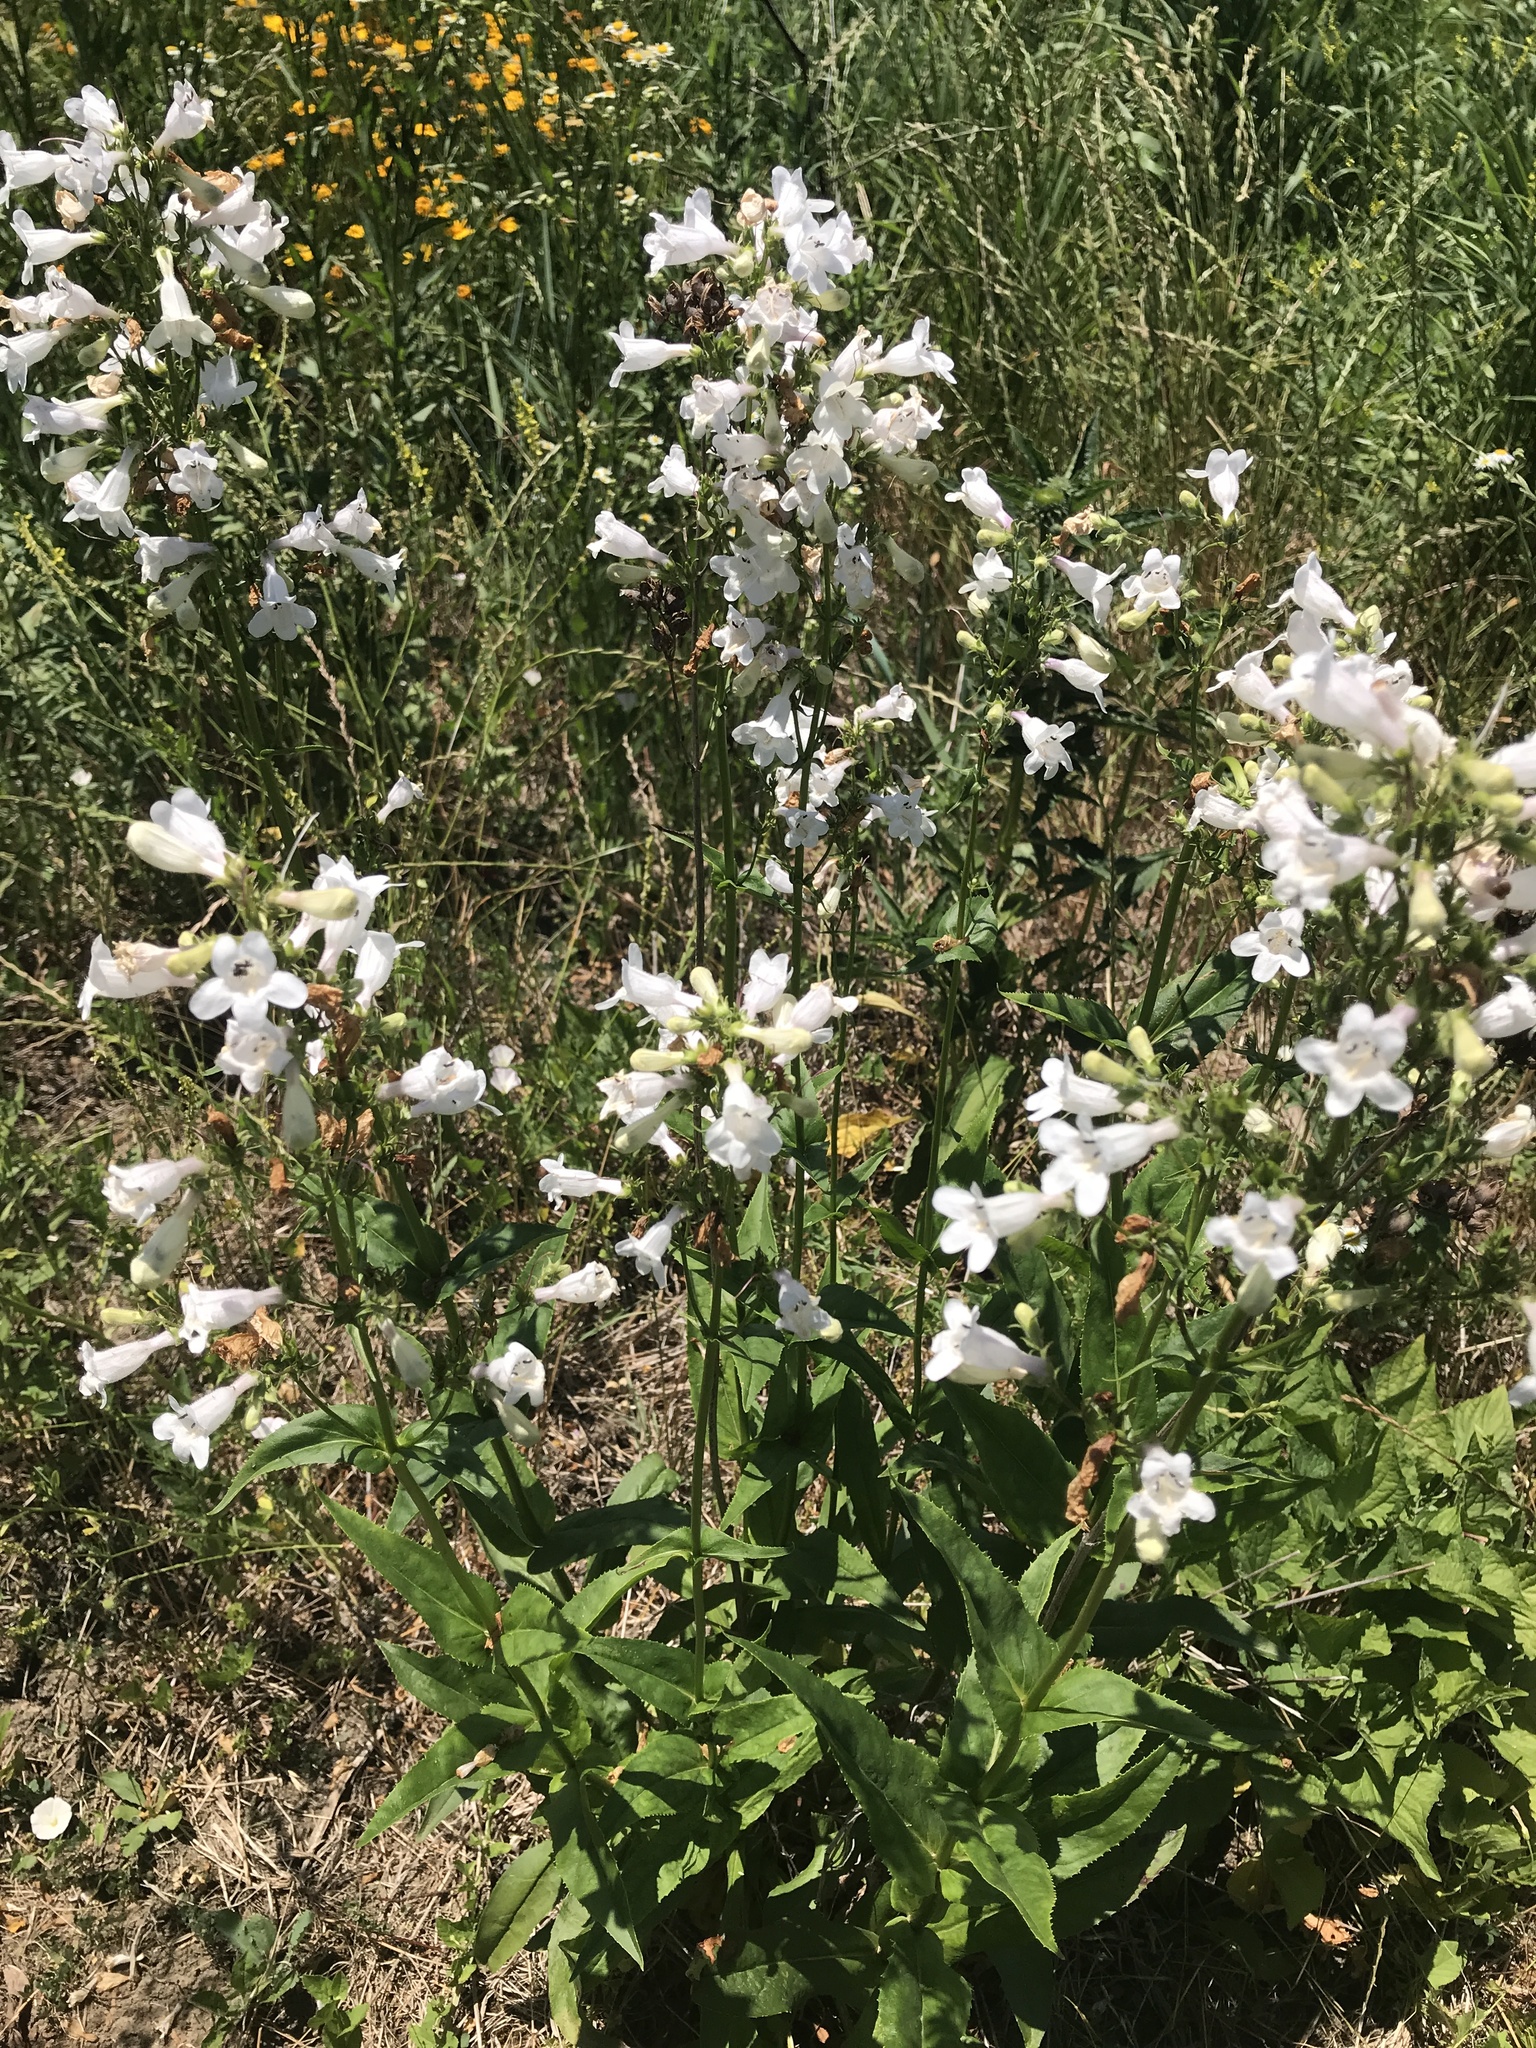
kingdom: Plantae
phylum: Tracheophyta
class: Magnoliopsida
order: Lamiales
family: Plantaginaceae
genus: Penstemon
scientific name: Penstemon digitalis
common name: Foxglove beardtongue
